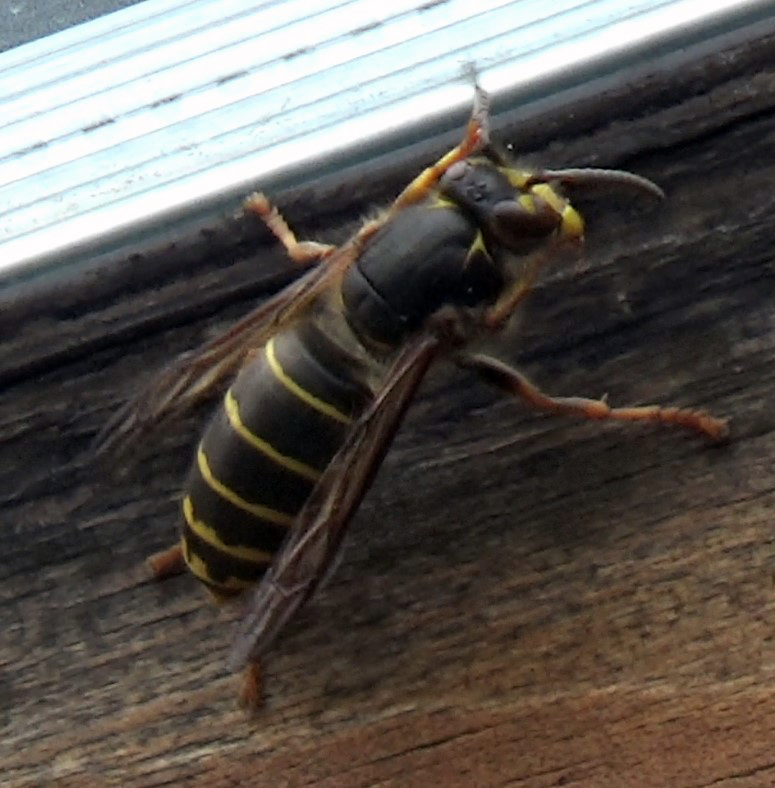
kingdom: Animalia
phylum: Arthropoda
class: Insecta
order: Hymenoptera
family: Vespidae
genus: Dolichovespula
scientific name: Dolichovespula media
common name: Median wasp
